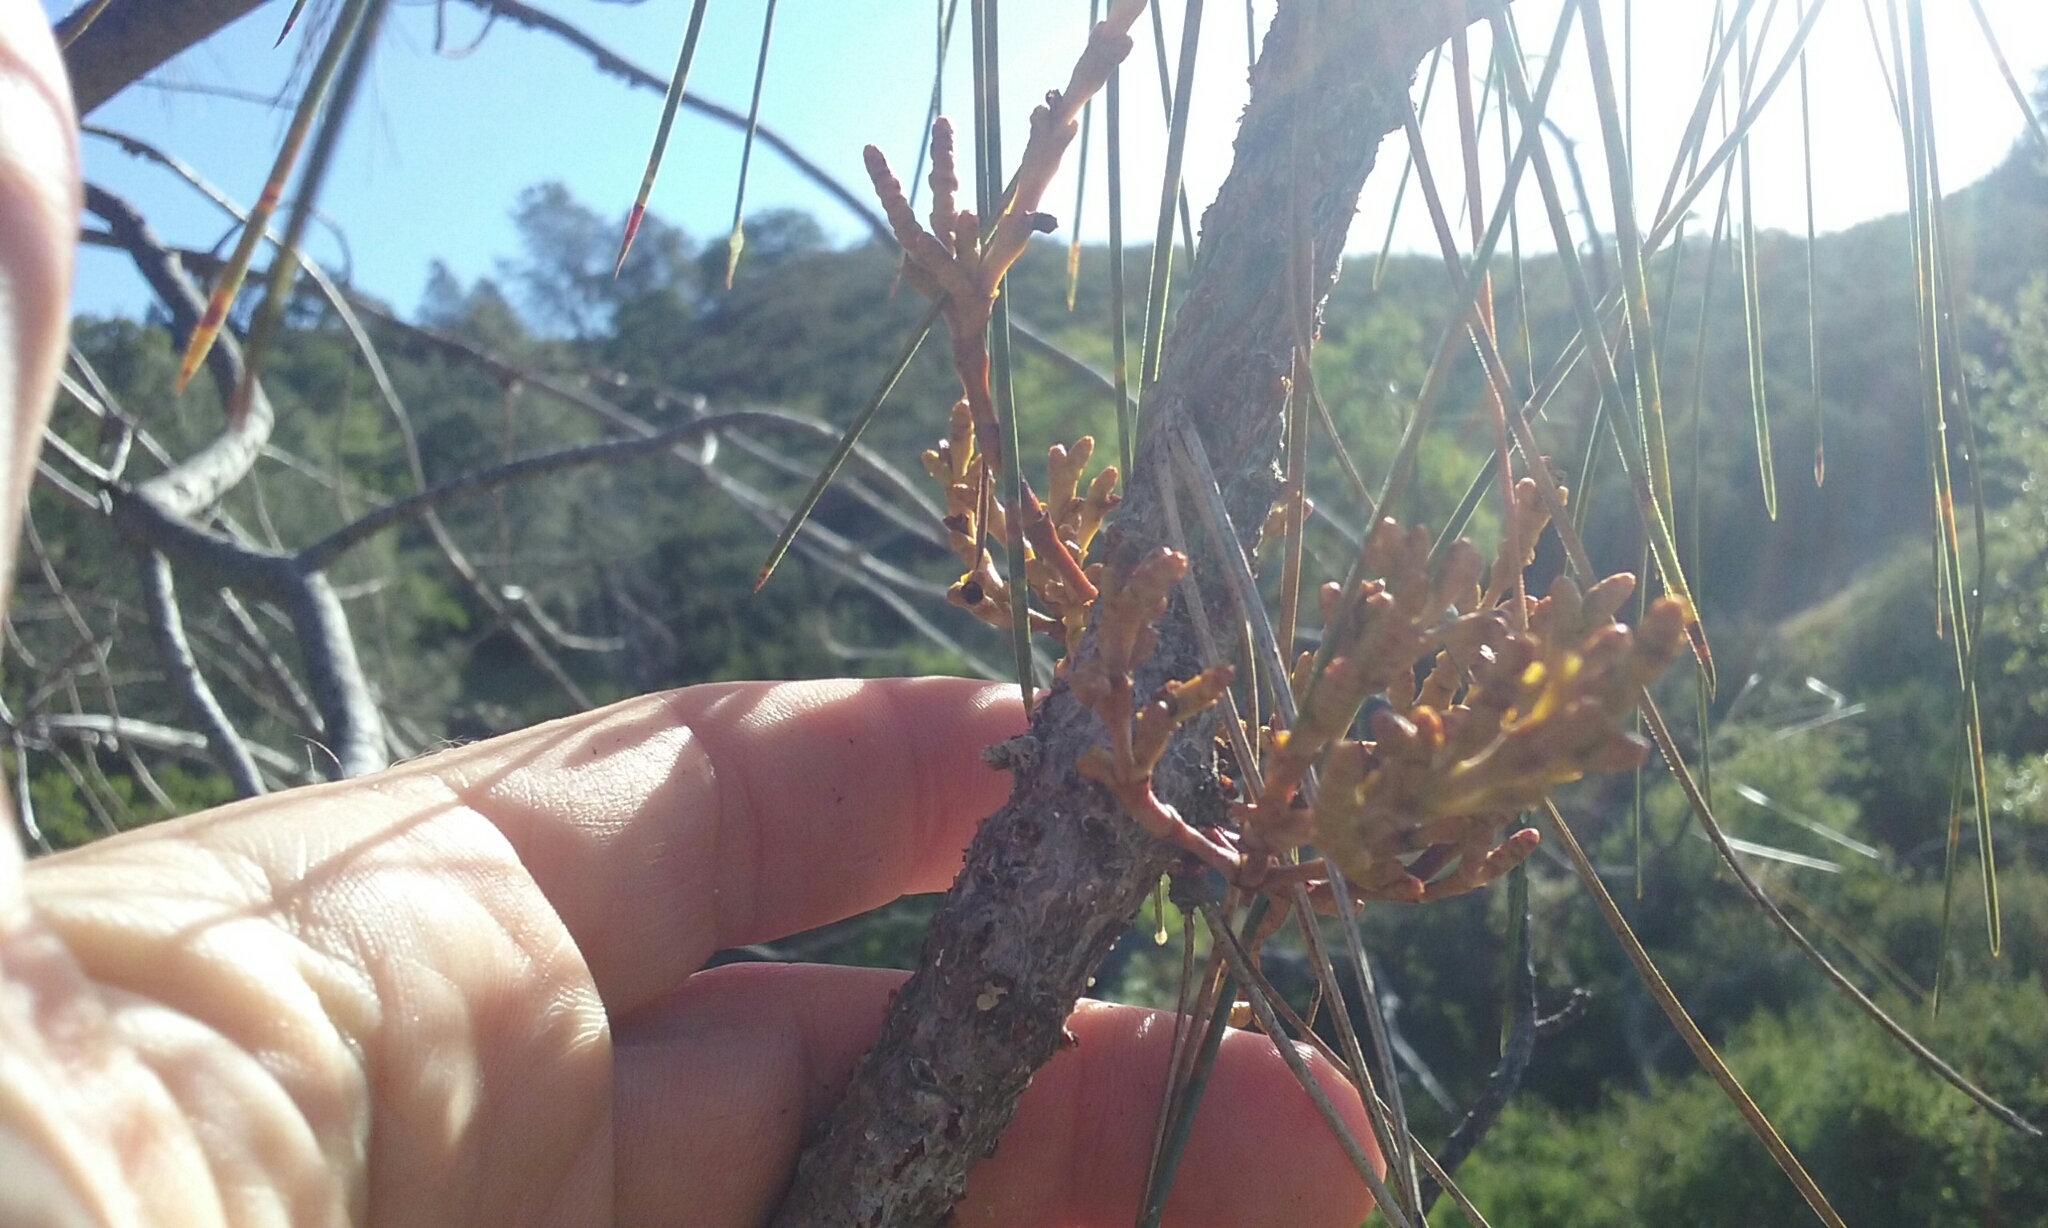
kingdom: Plantae
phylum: Tracheophyta
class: Magnoliopsida
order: Santalales
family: Viscaceae
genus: Arceuthobium
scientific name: Arceuthobium campylopodum
